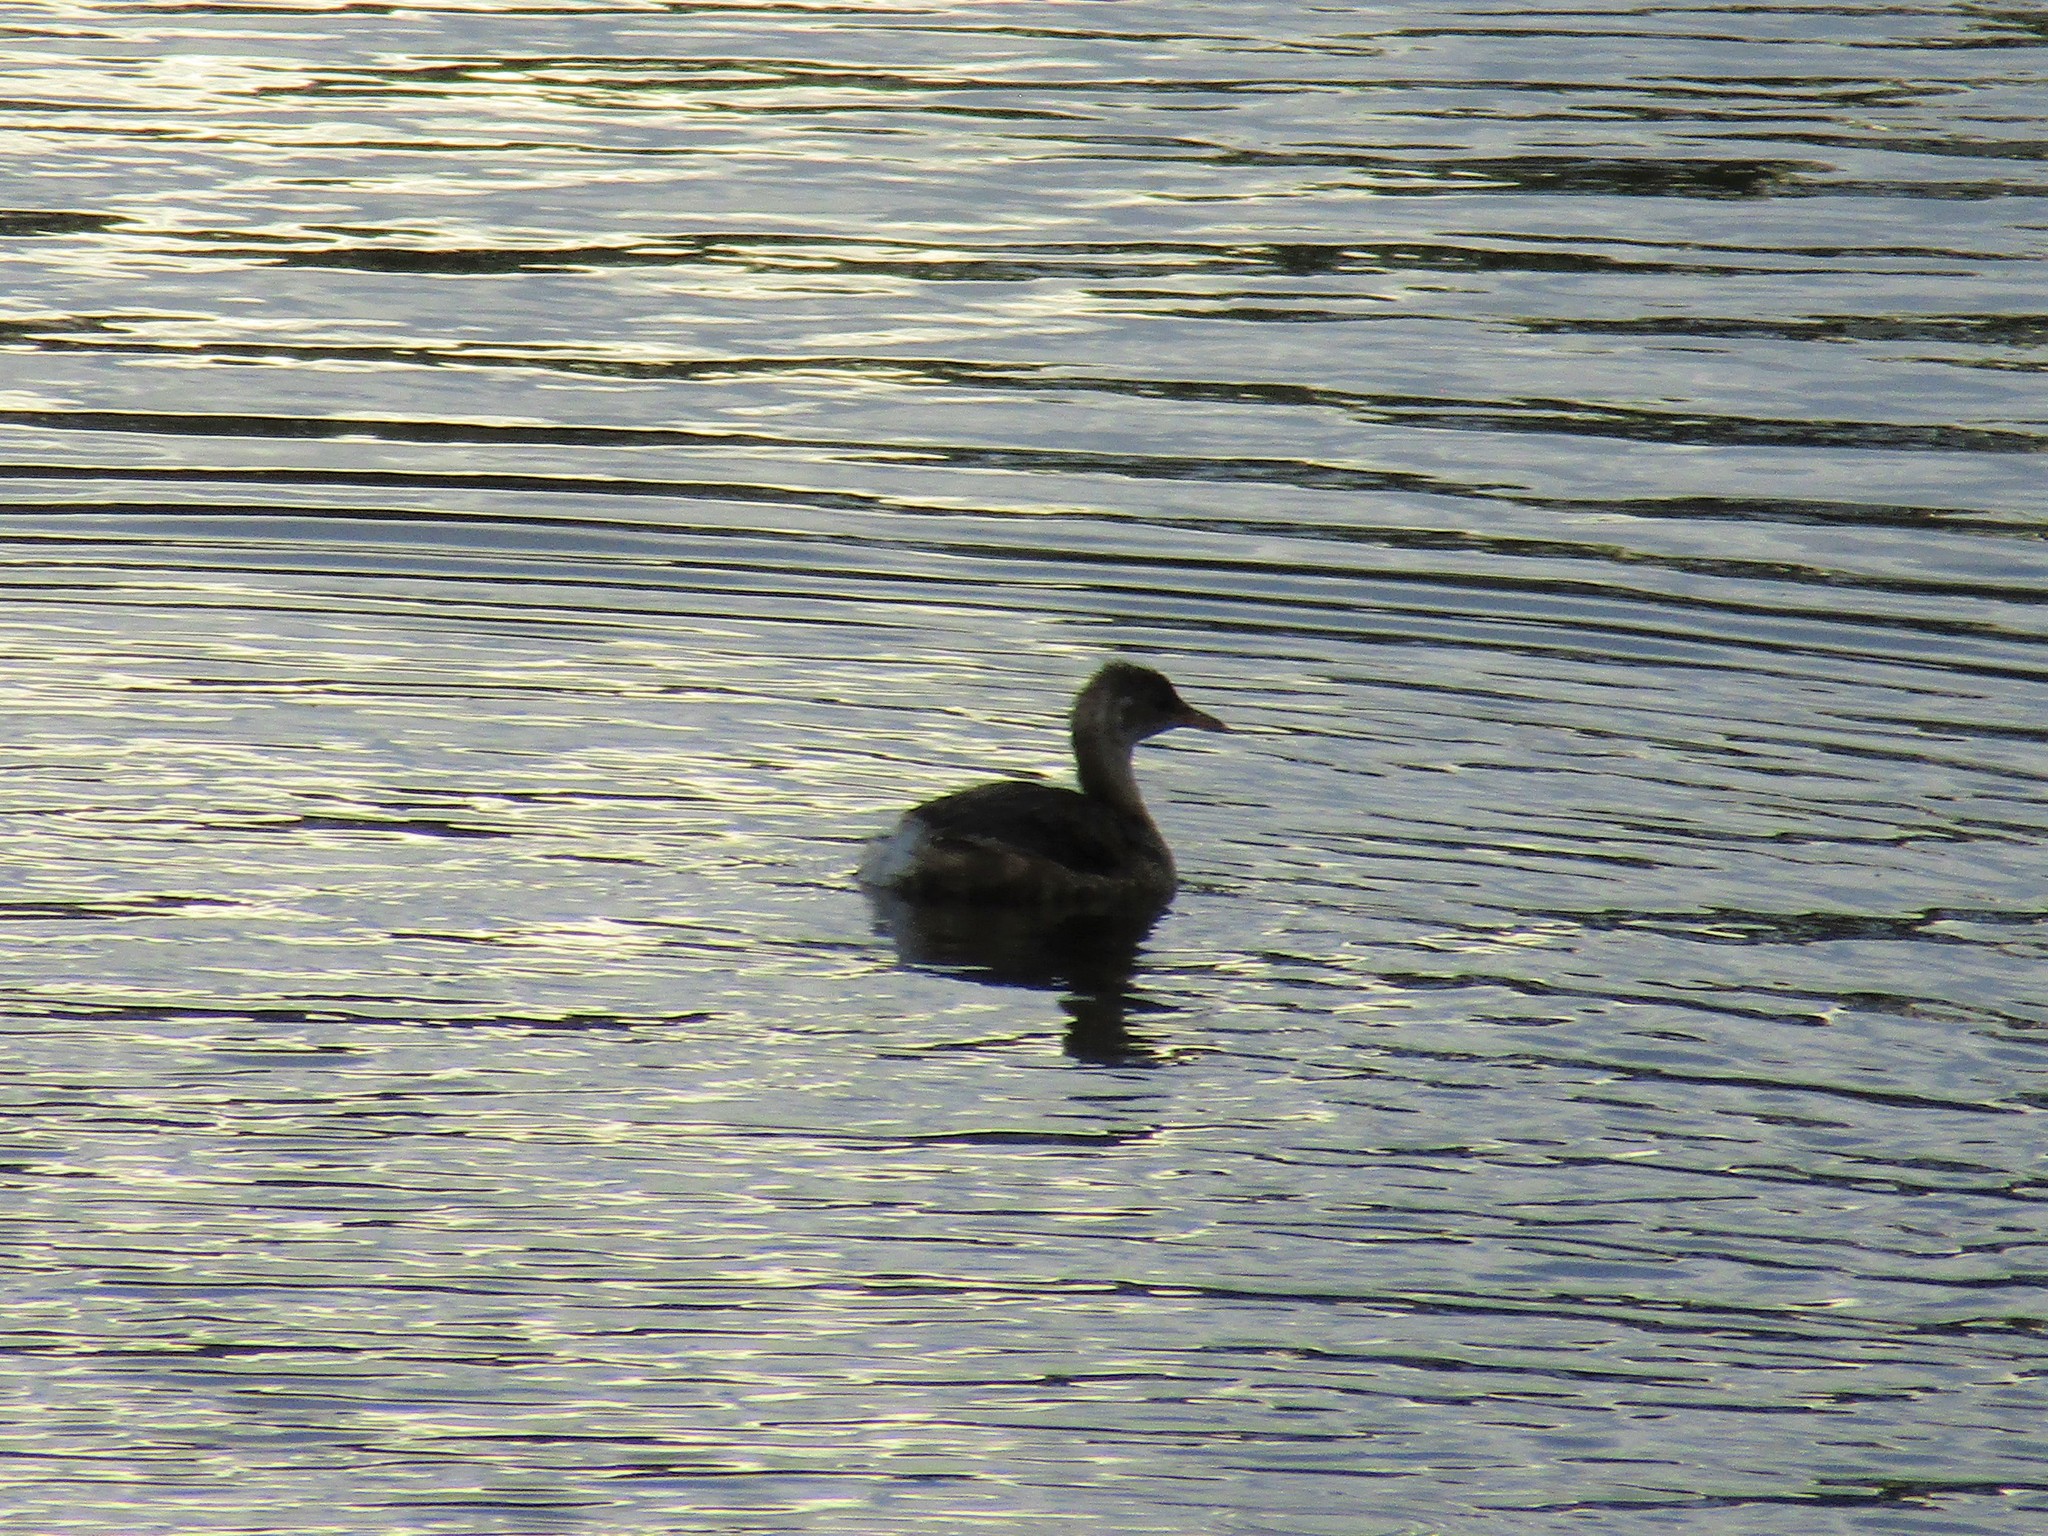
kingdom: Animalia
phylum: Chordata
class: Aves
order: Podicipediformes
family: Podicipedidae
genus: Tachybaptus
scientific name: Tachybaptus ruficollis
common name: Little grebe
